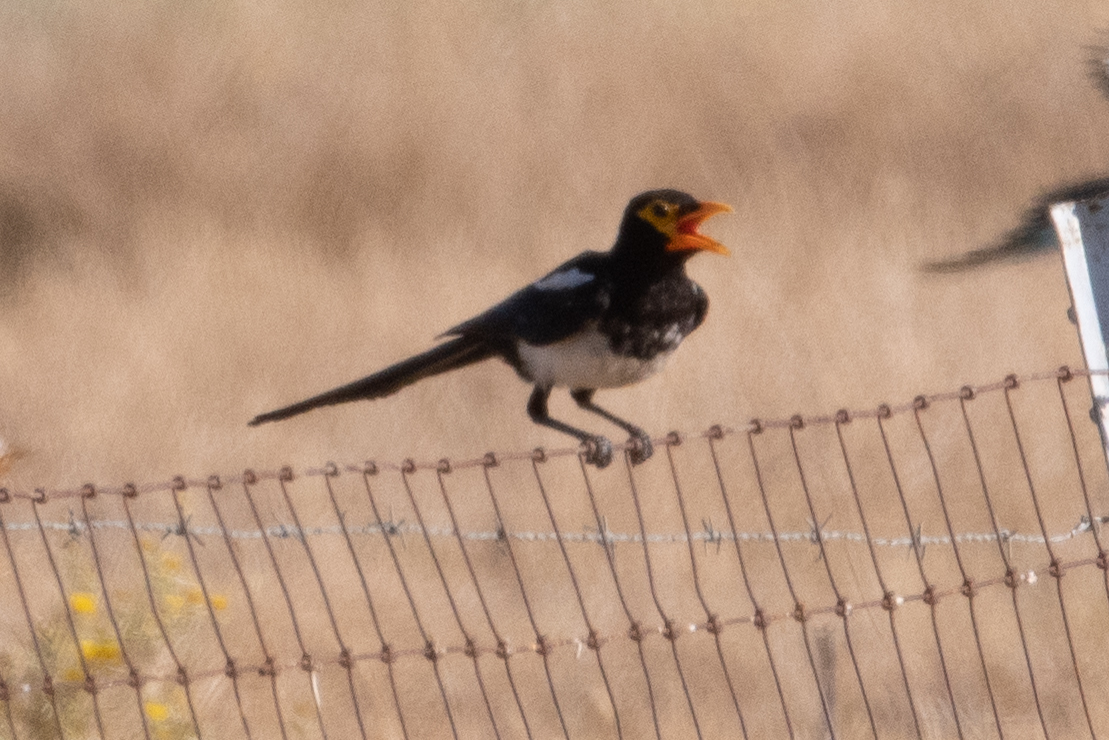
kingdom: Animalia
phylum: Chordata
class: Aves
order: Passeriformes
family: Corvidae
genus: Pica
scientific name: Pica nuttalli
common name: Yellow-billed magpie
